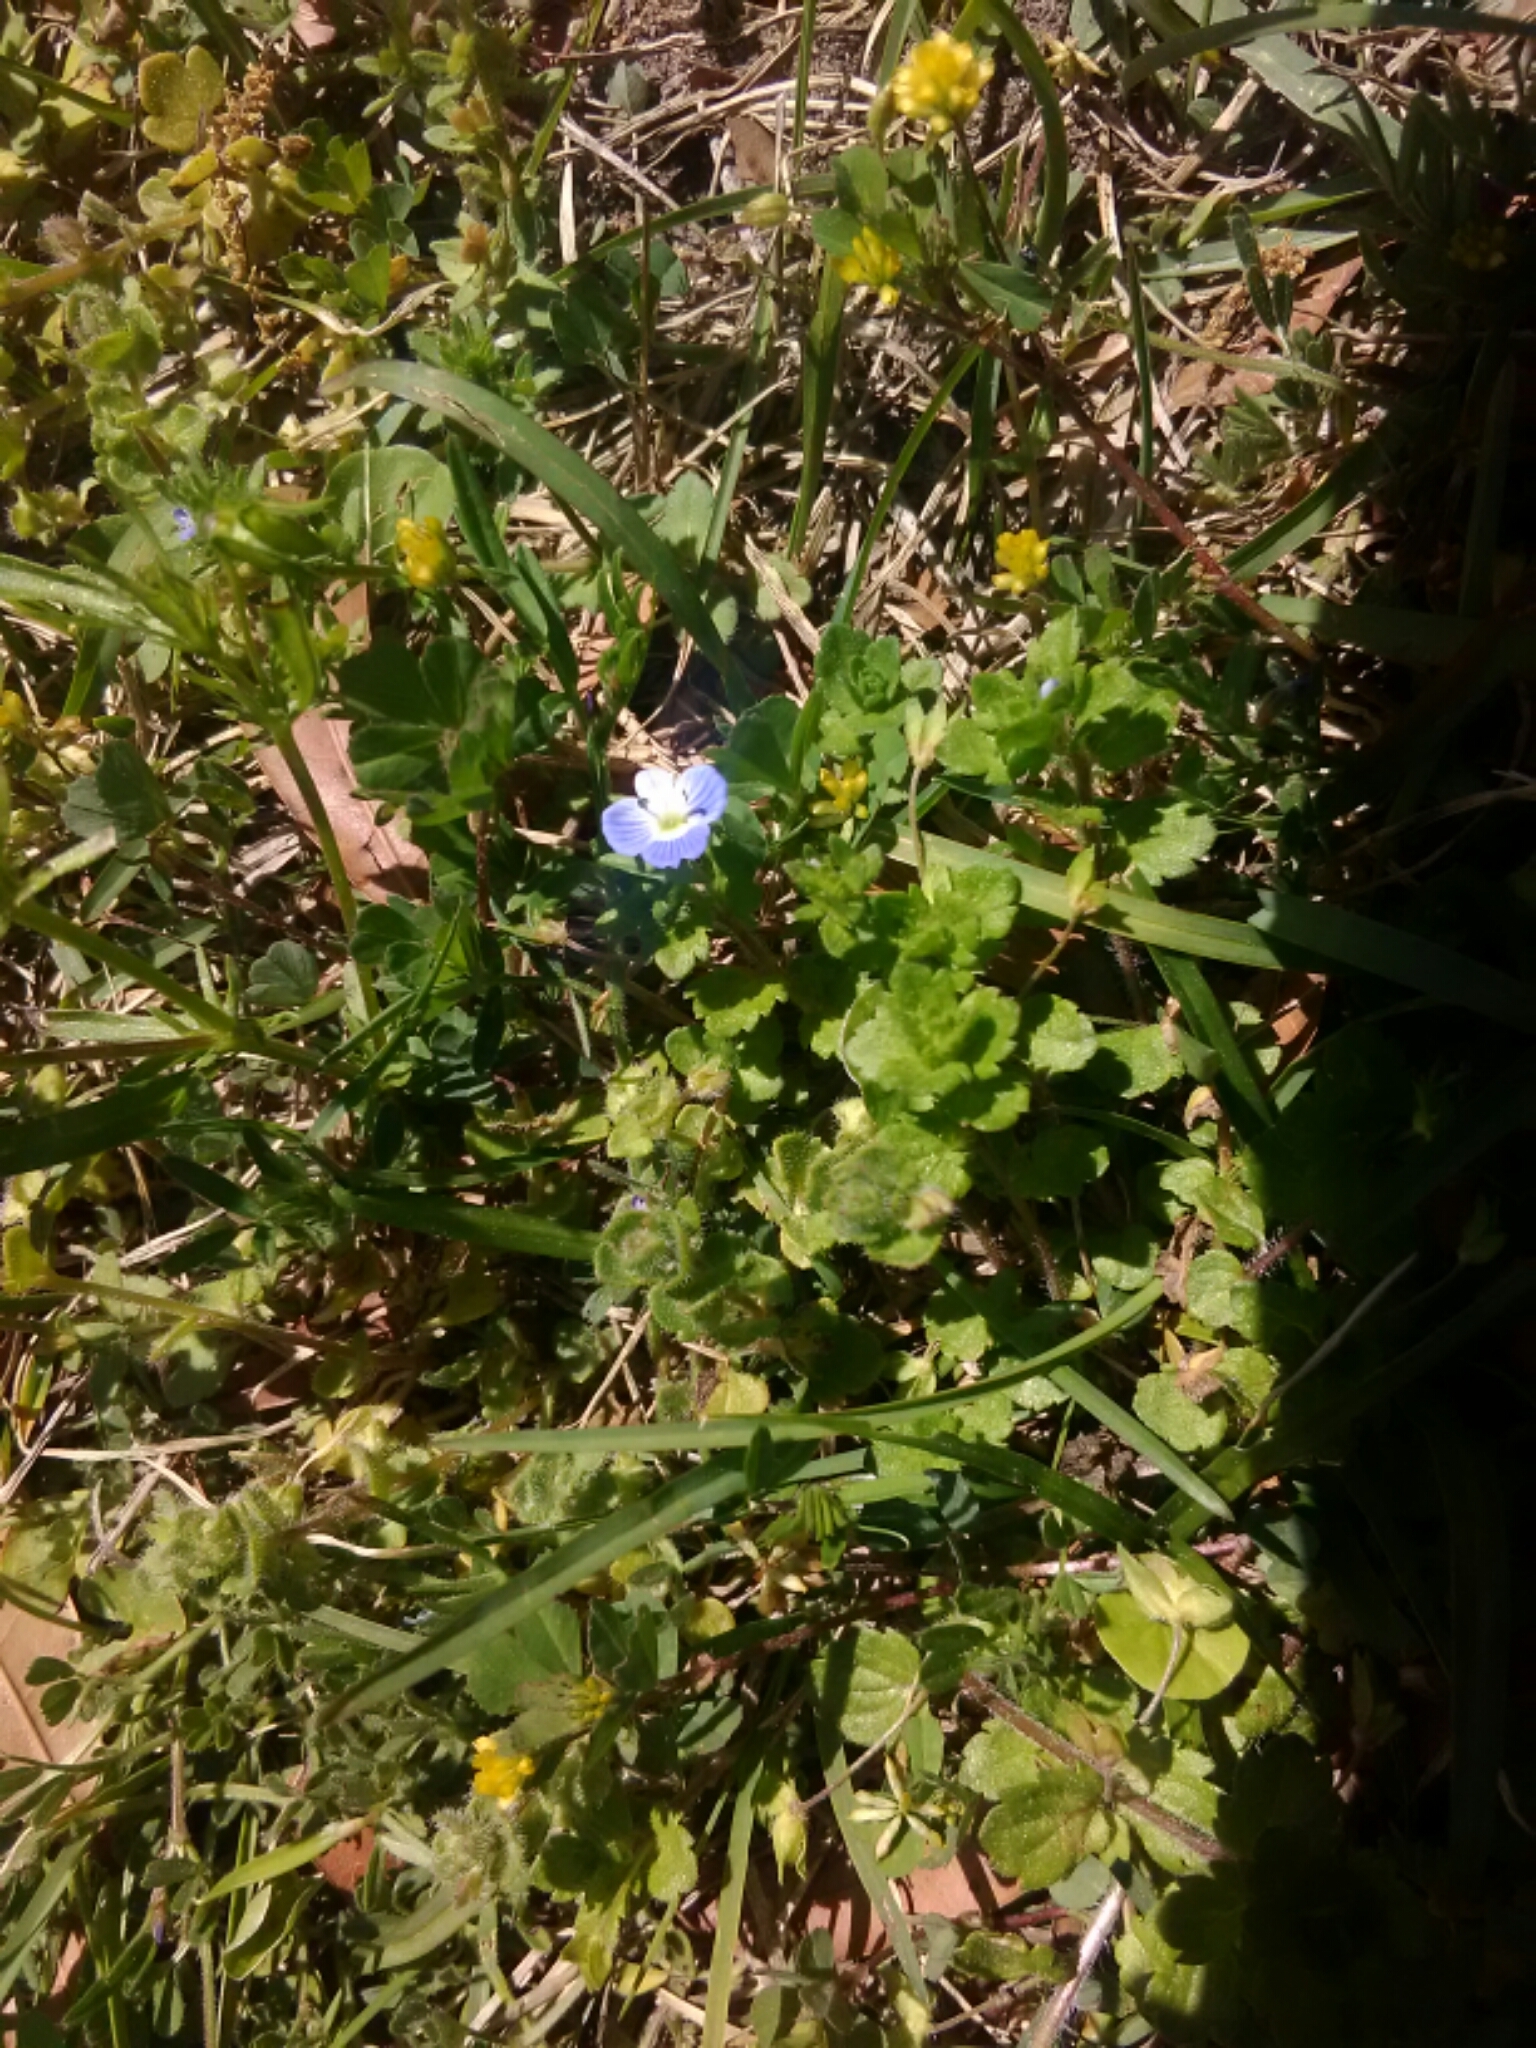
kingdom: Plantae
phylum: Tracheophyta
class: Magnoliopsida
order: Lamiales
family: Plantaginaceae
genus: Veronica
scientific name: Veronica persica
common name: Common field-speedwell
